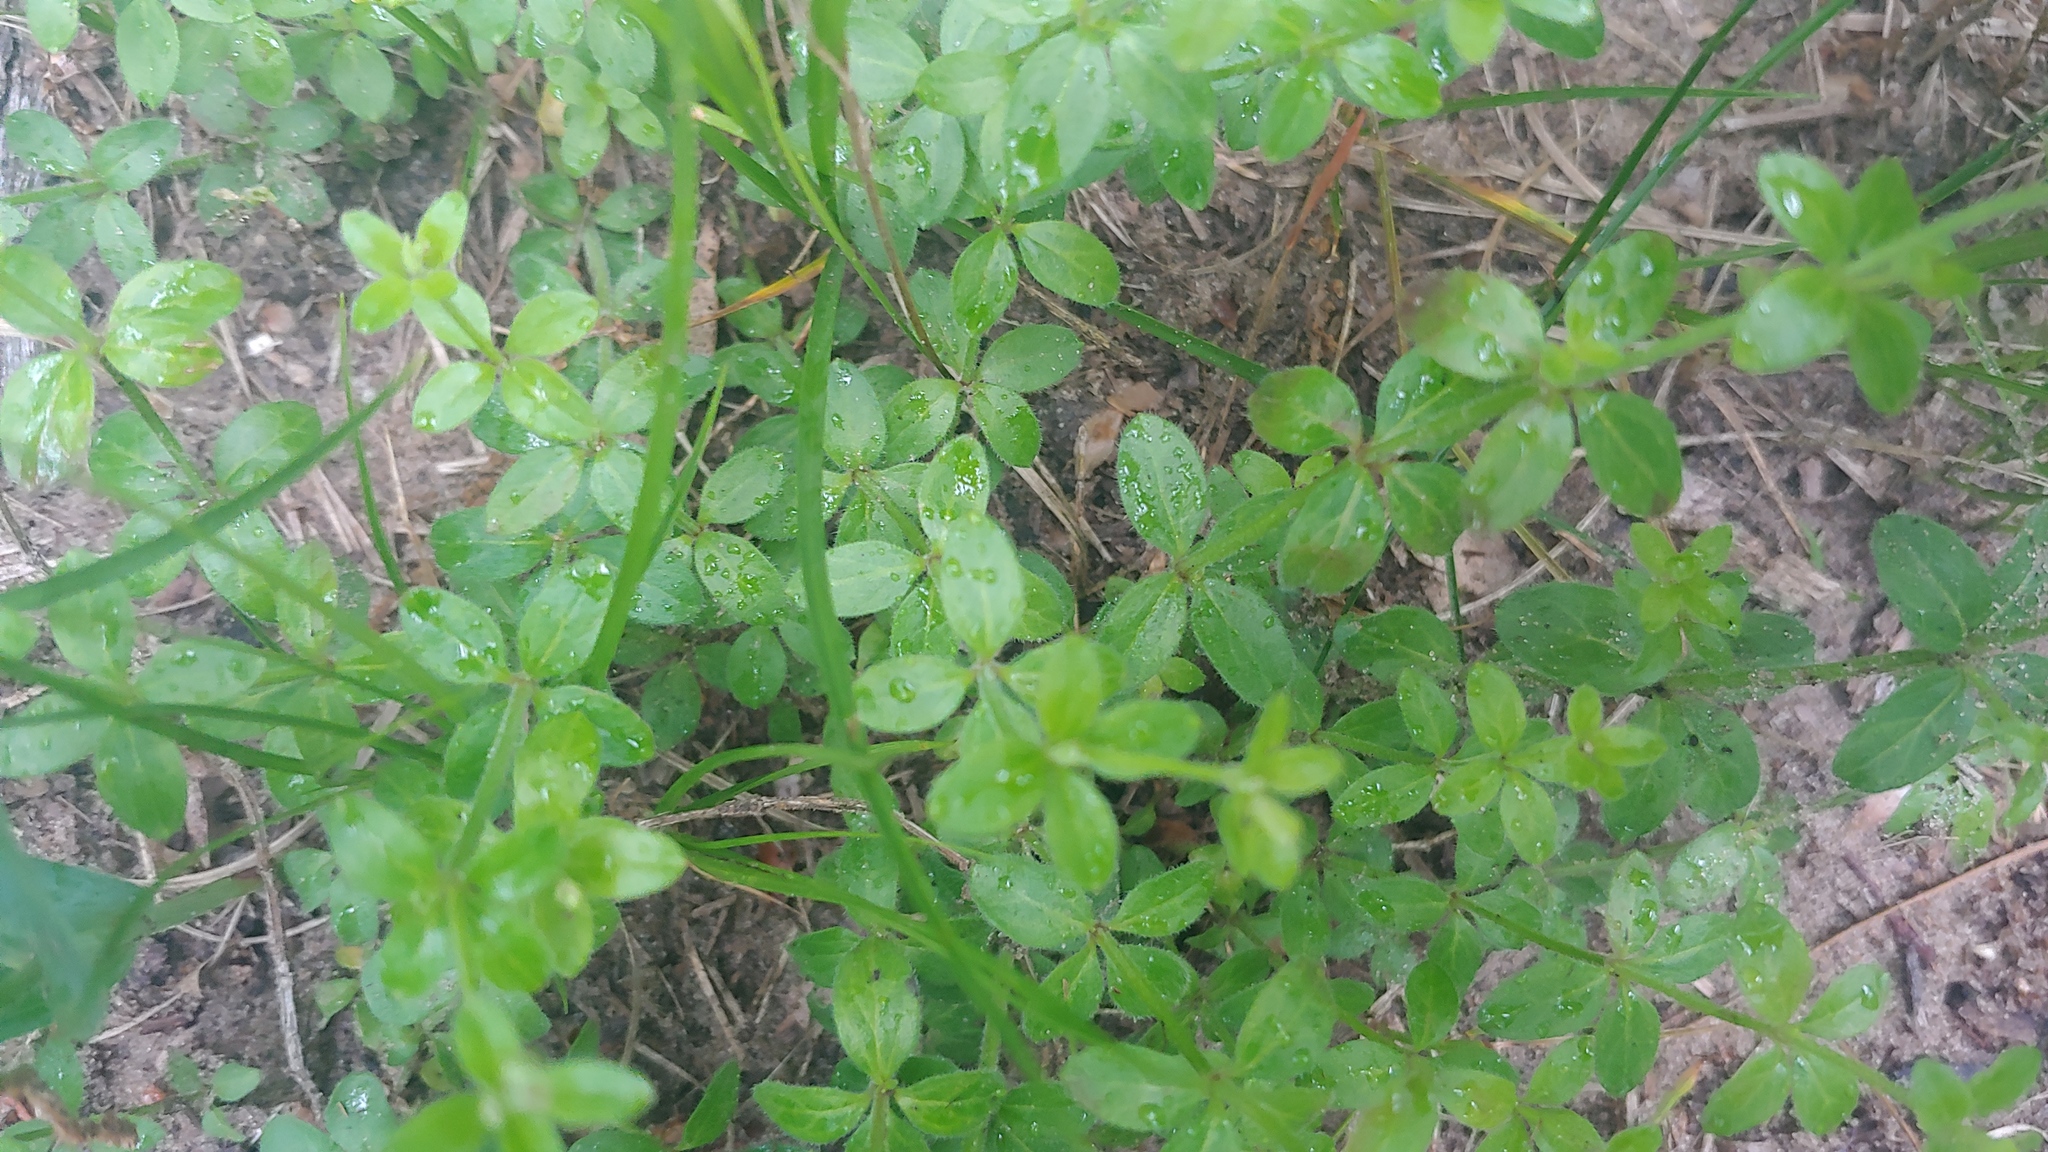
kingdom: Plantae
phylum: Tracheophyta
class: Magnoliopsida
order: Gentianales
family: Rubiaceae
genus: Galium
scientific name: Galium pilosum
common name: Hairy bedstraw
